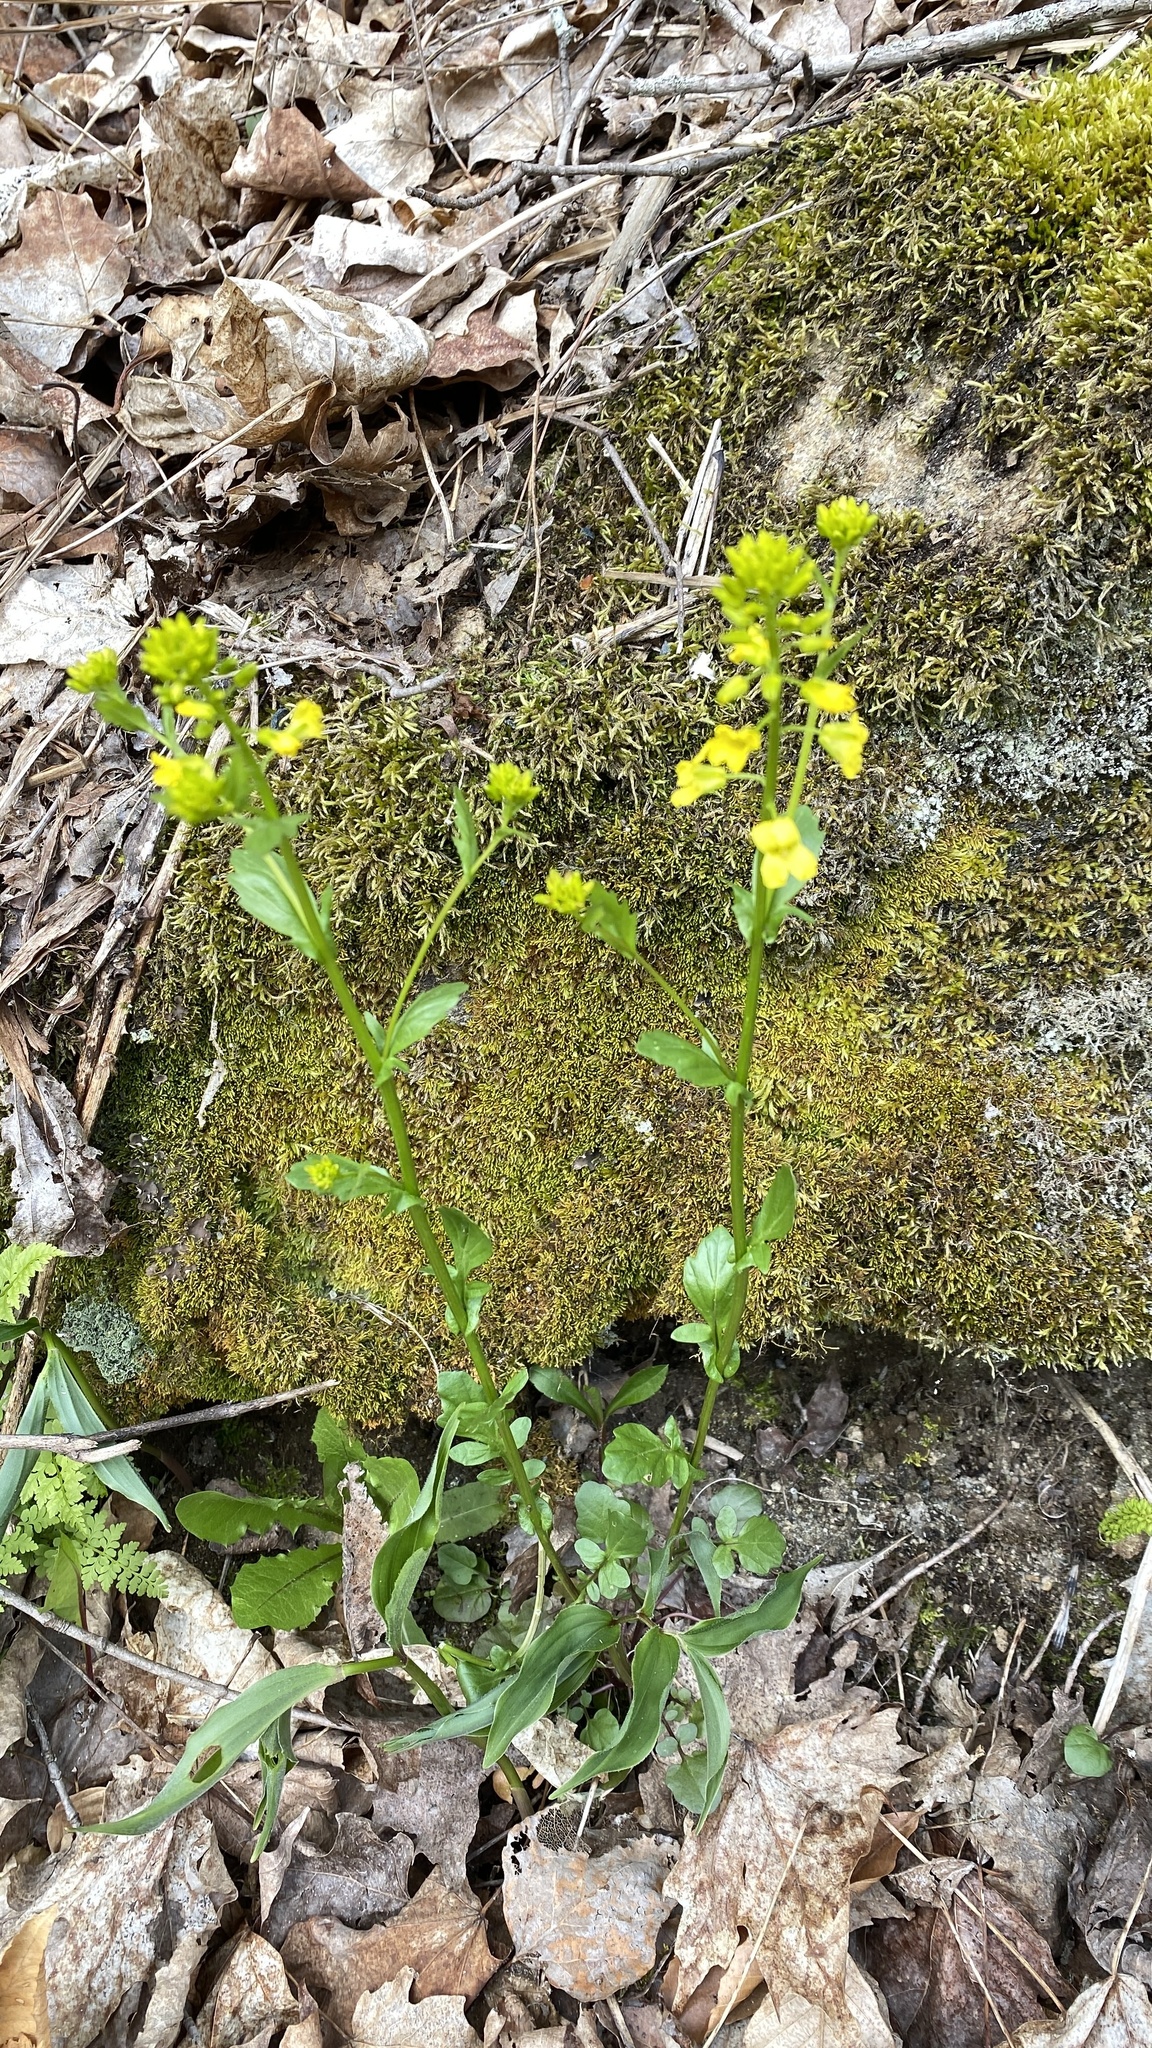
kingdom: Plantae
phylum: Tracheophyta
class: Magnoliopsida
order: Brassicales
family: Brassicaceae
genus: Barbarea
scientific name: Barbarea vulgaris
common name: Cressy-greens
